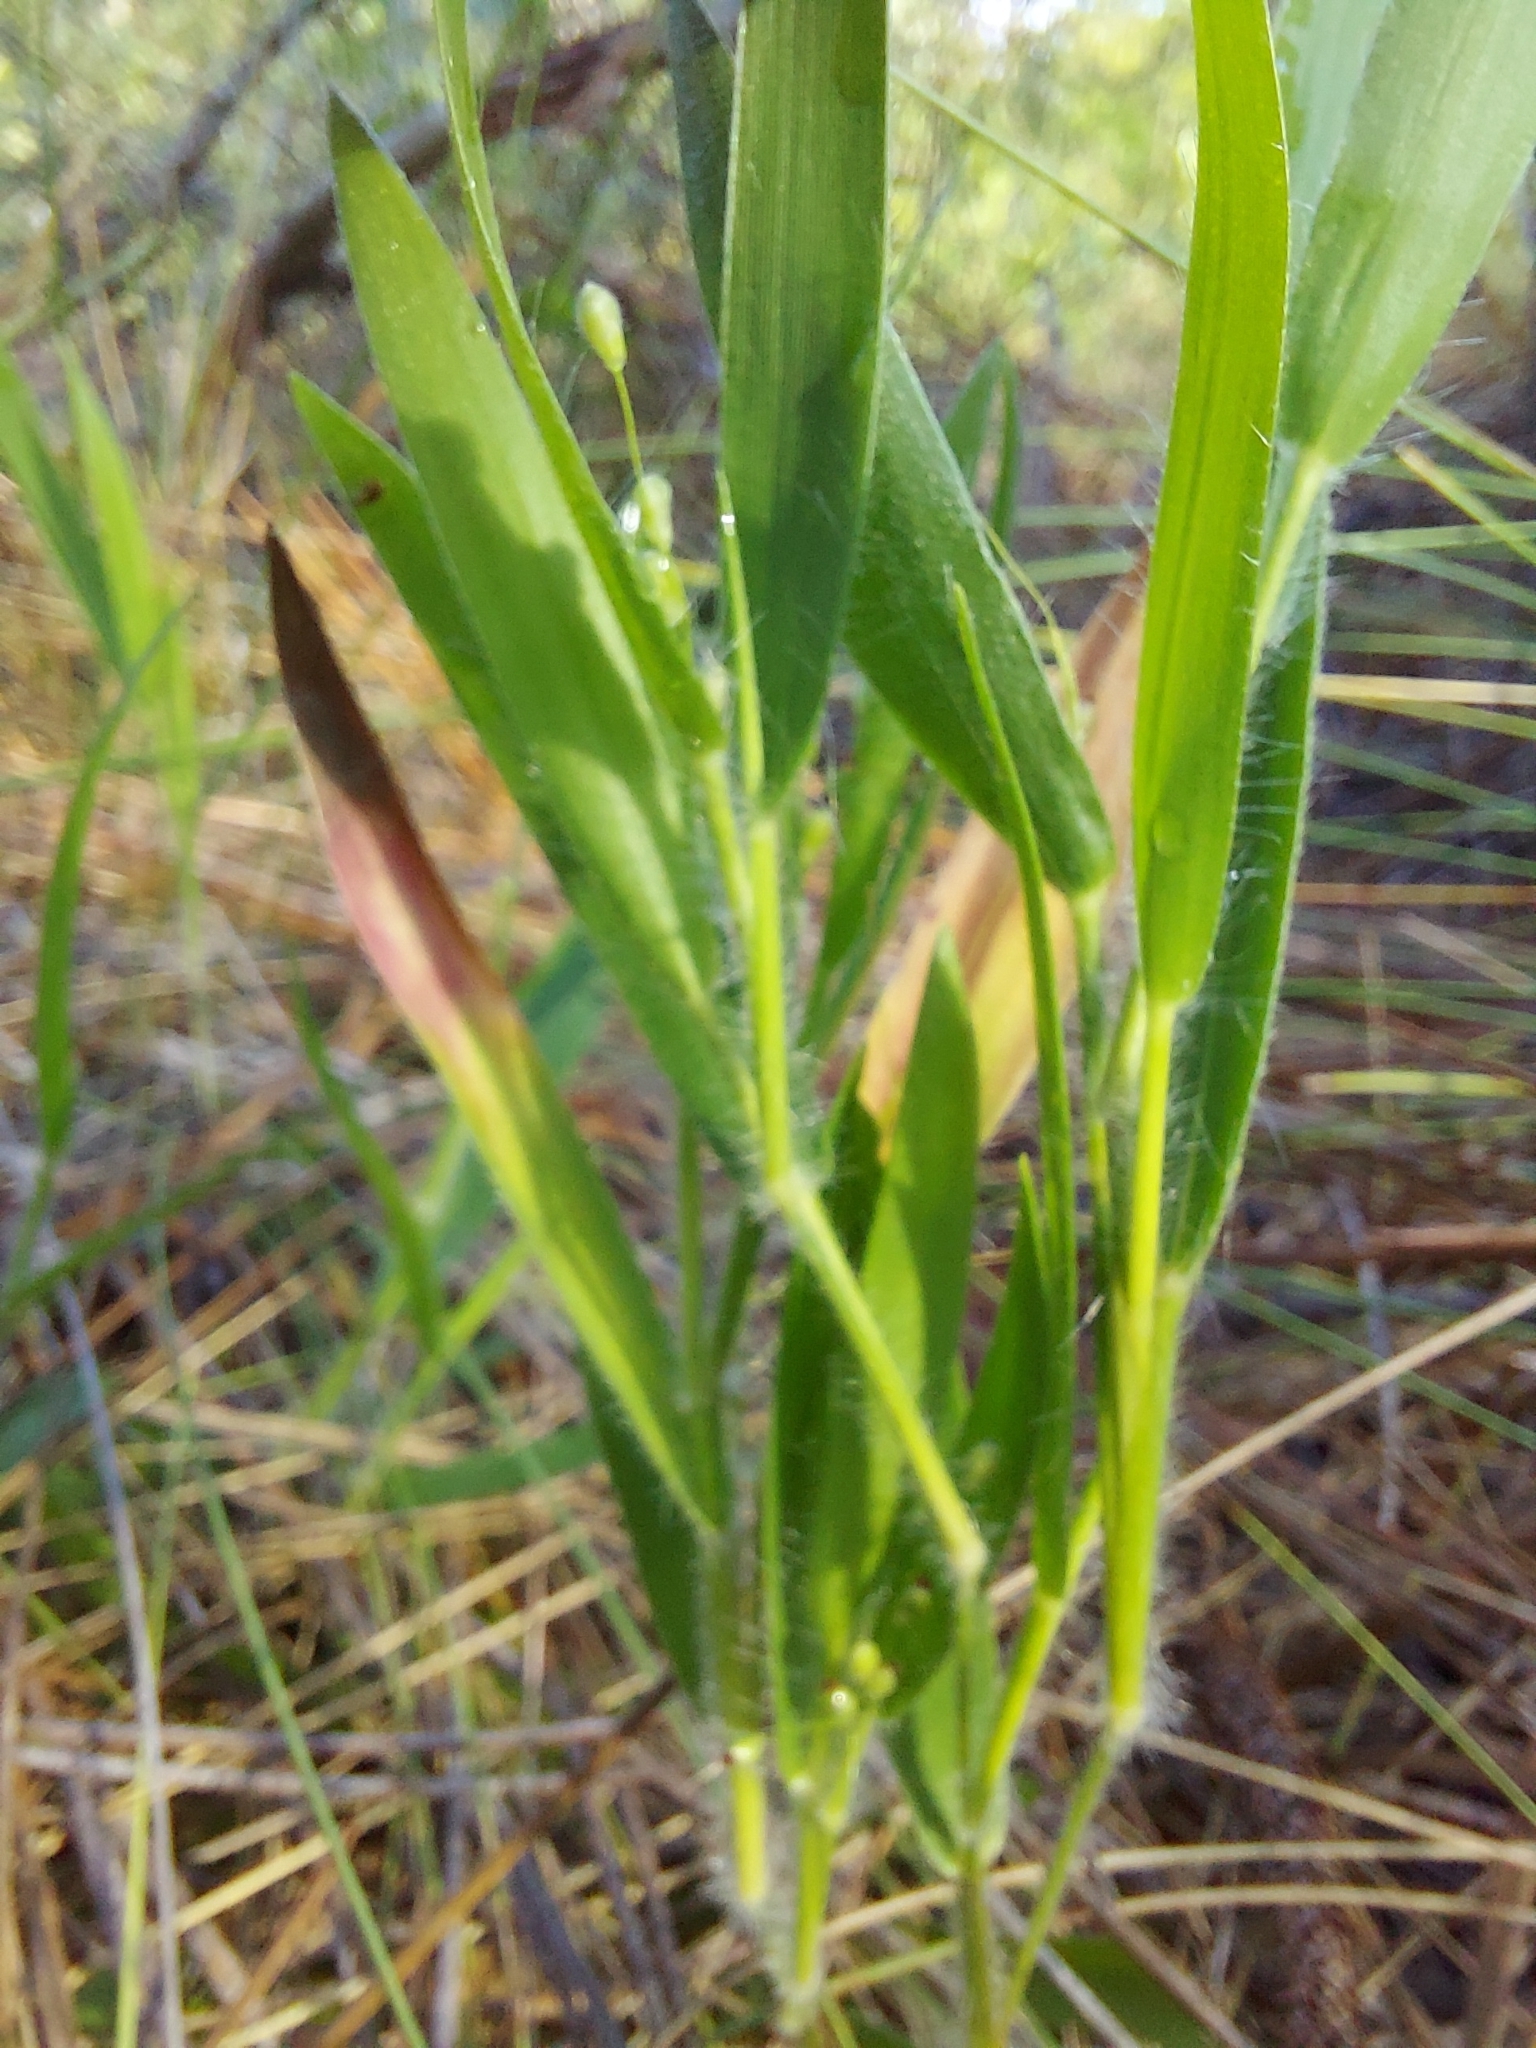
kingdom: Plantae
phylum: Tracheophyta
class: Liliopsida
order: Poales
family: Poaceae
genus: Dichanthelium
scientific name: Dichanthelium ovale
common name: Stiff-leaved panicgrass
